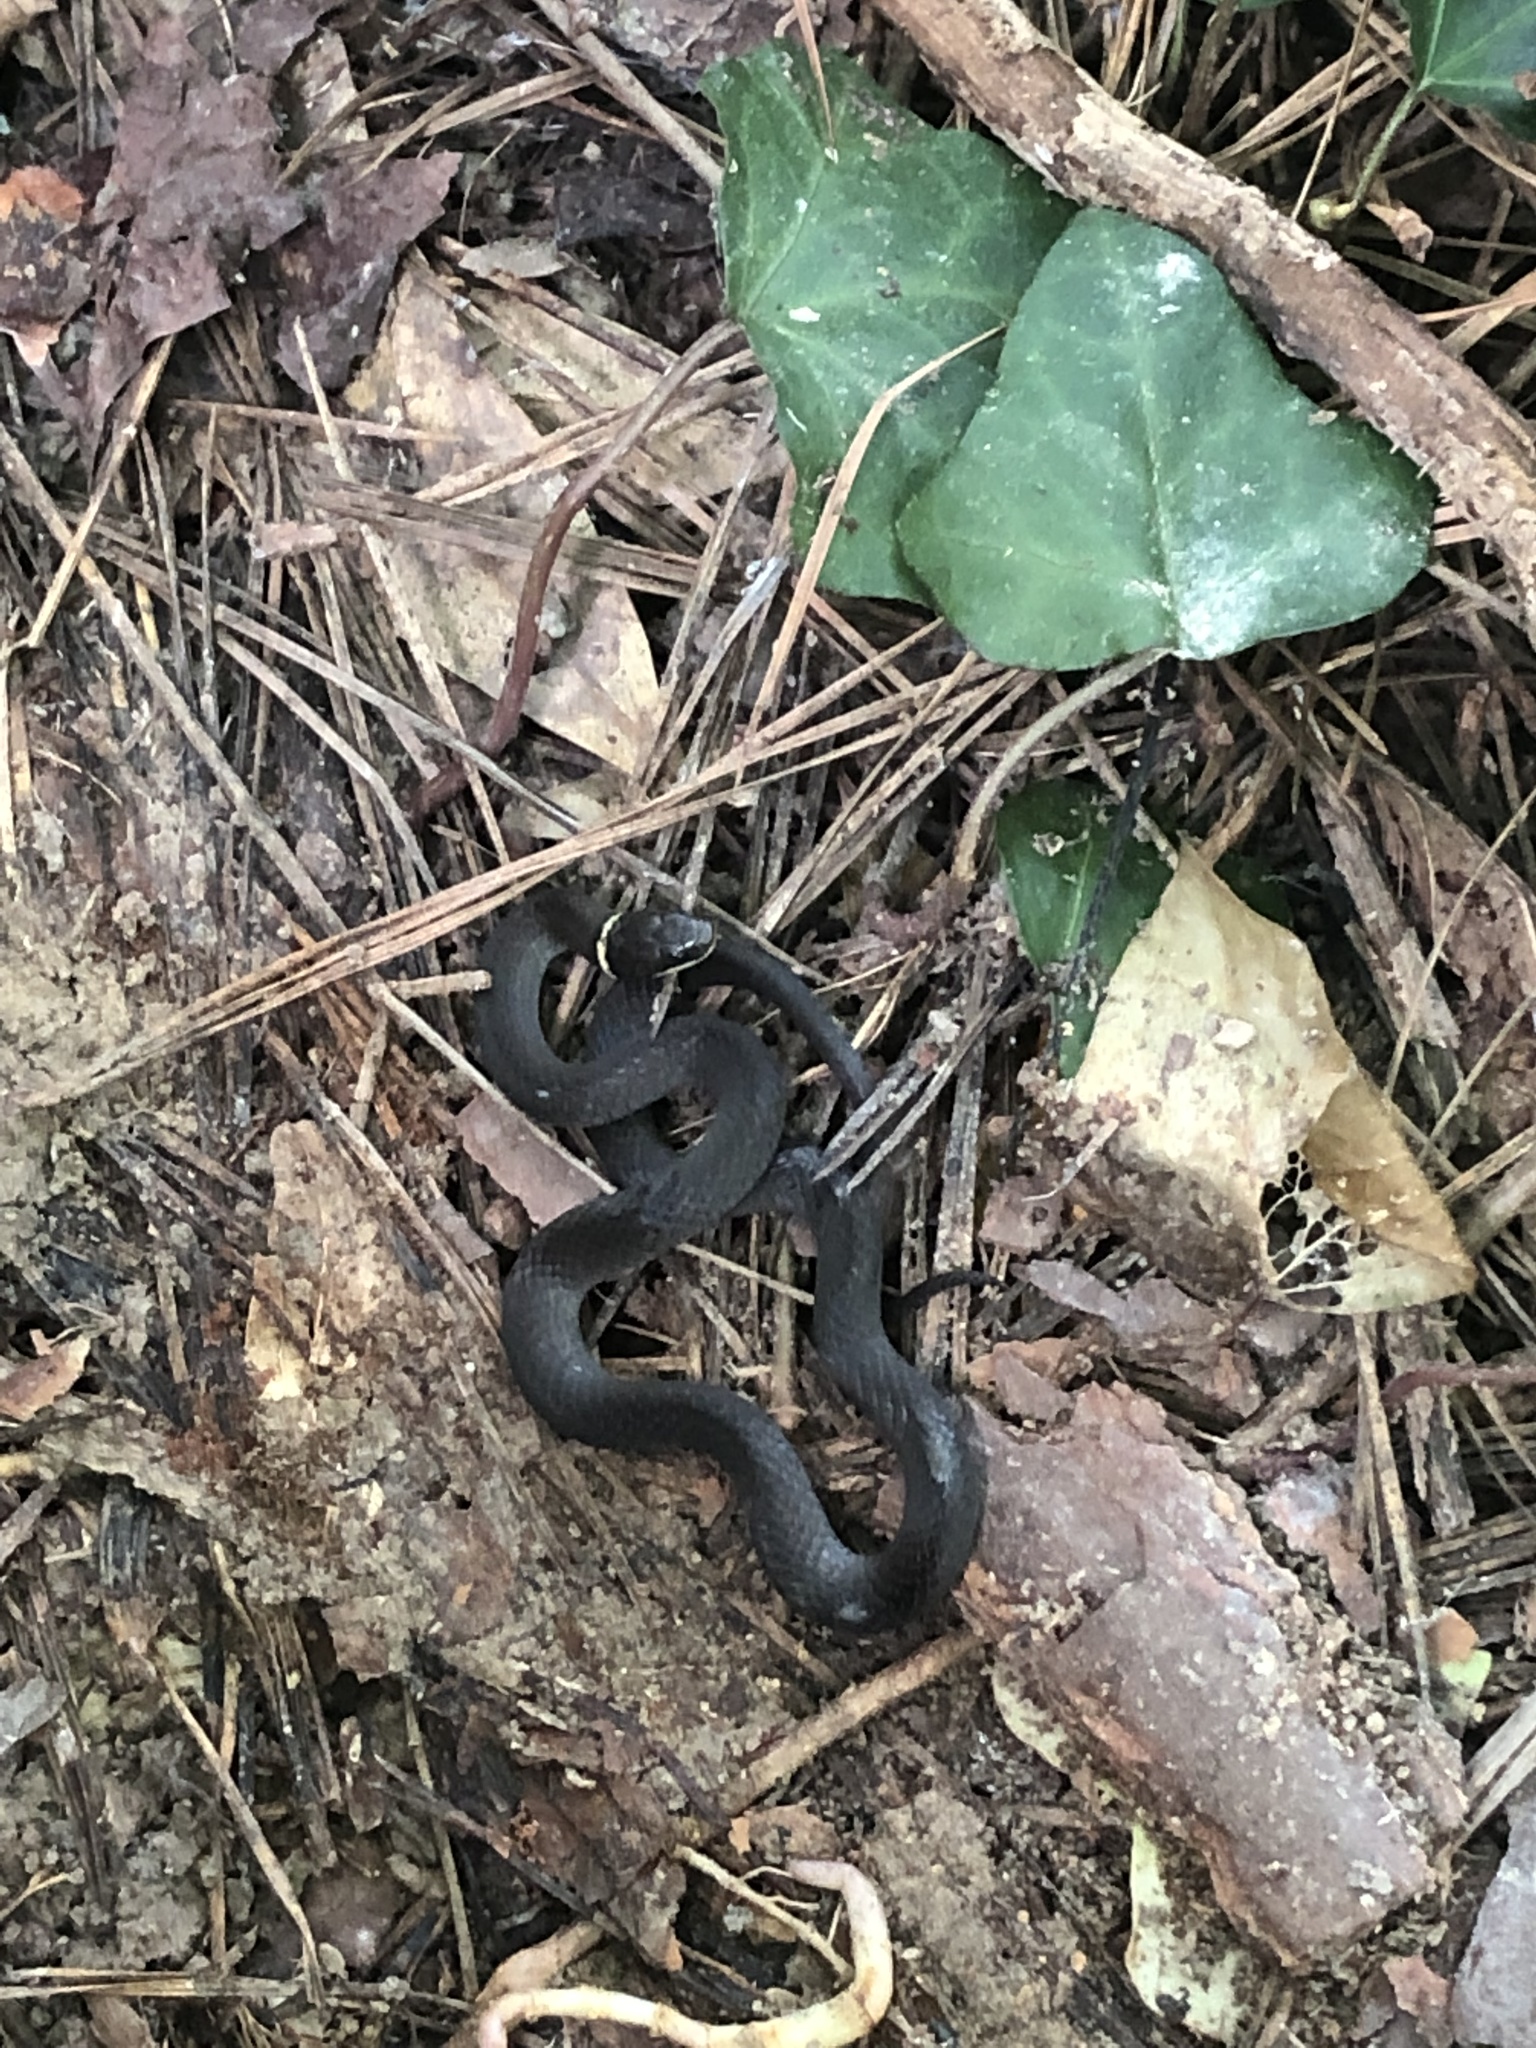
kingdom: Animalia
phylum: Chordata
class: Squamata
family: Colubridae
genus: Diadophis
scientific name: Diadophis punctatus
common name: Ringneck snake
